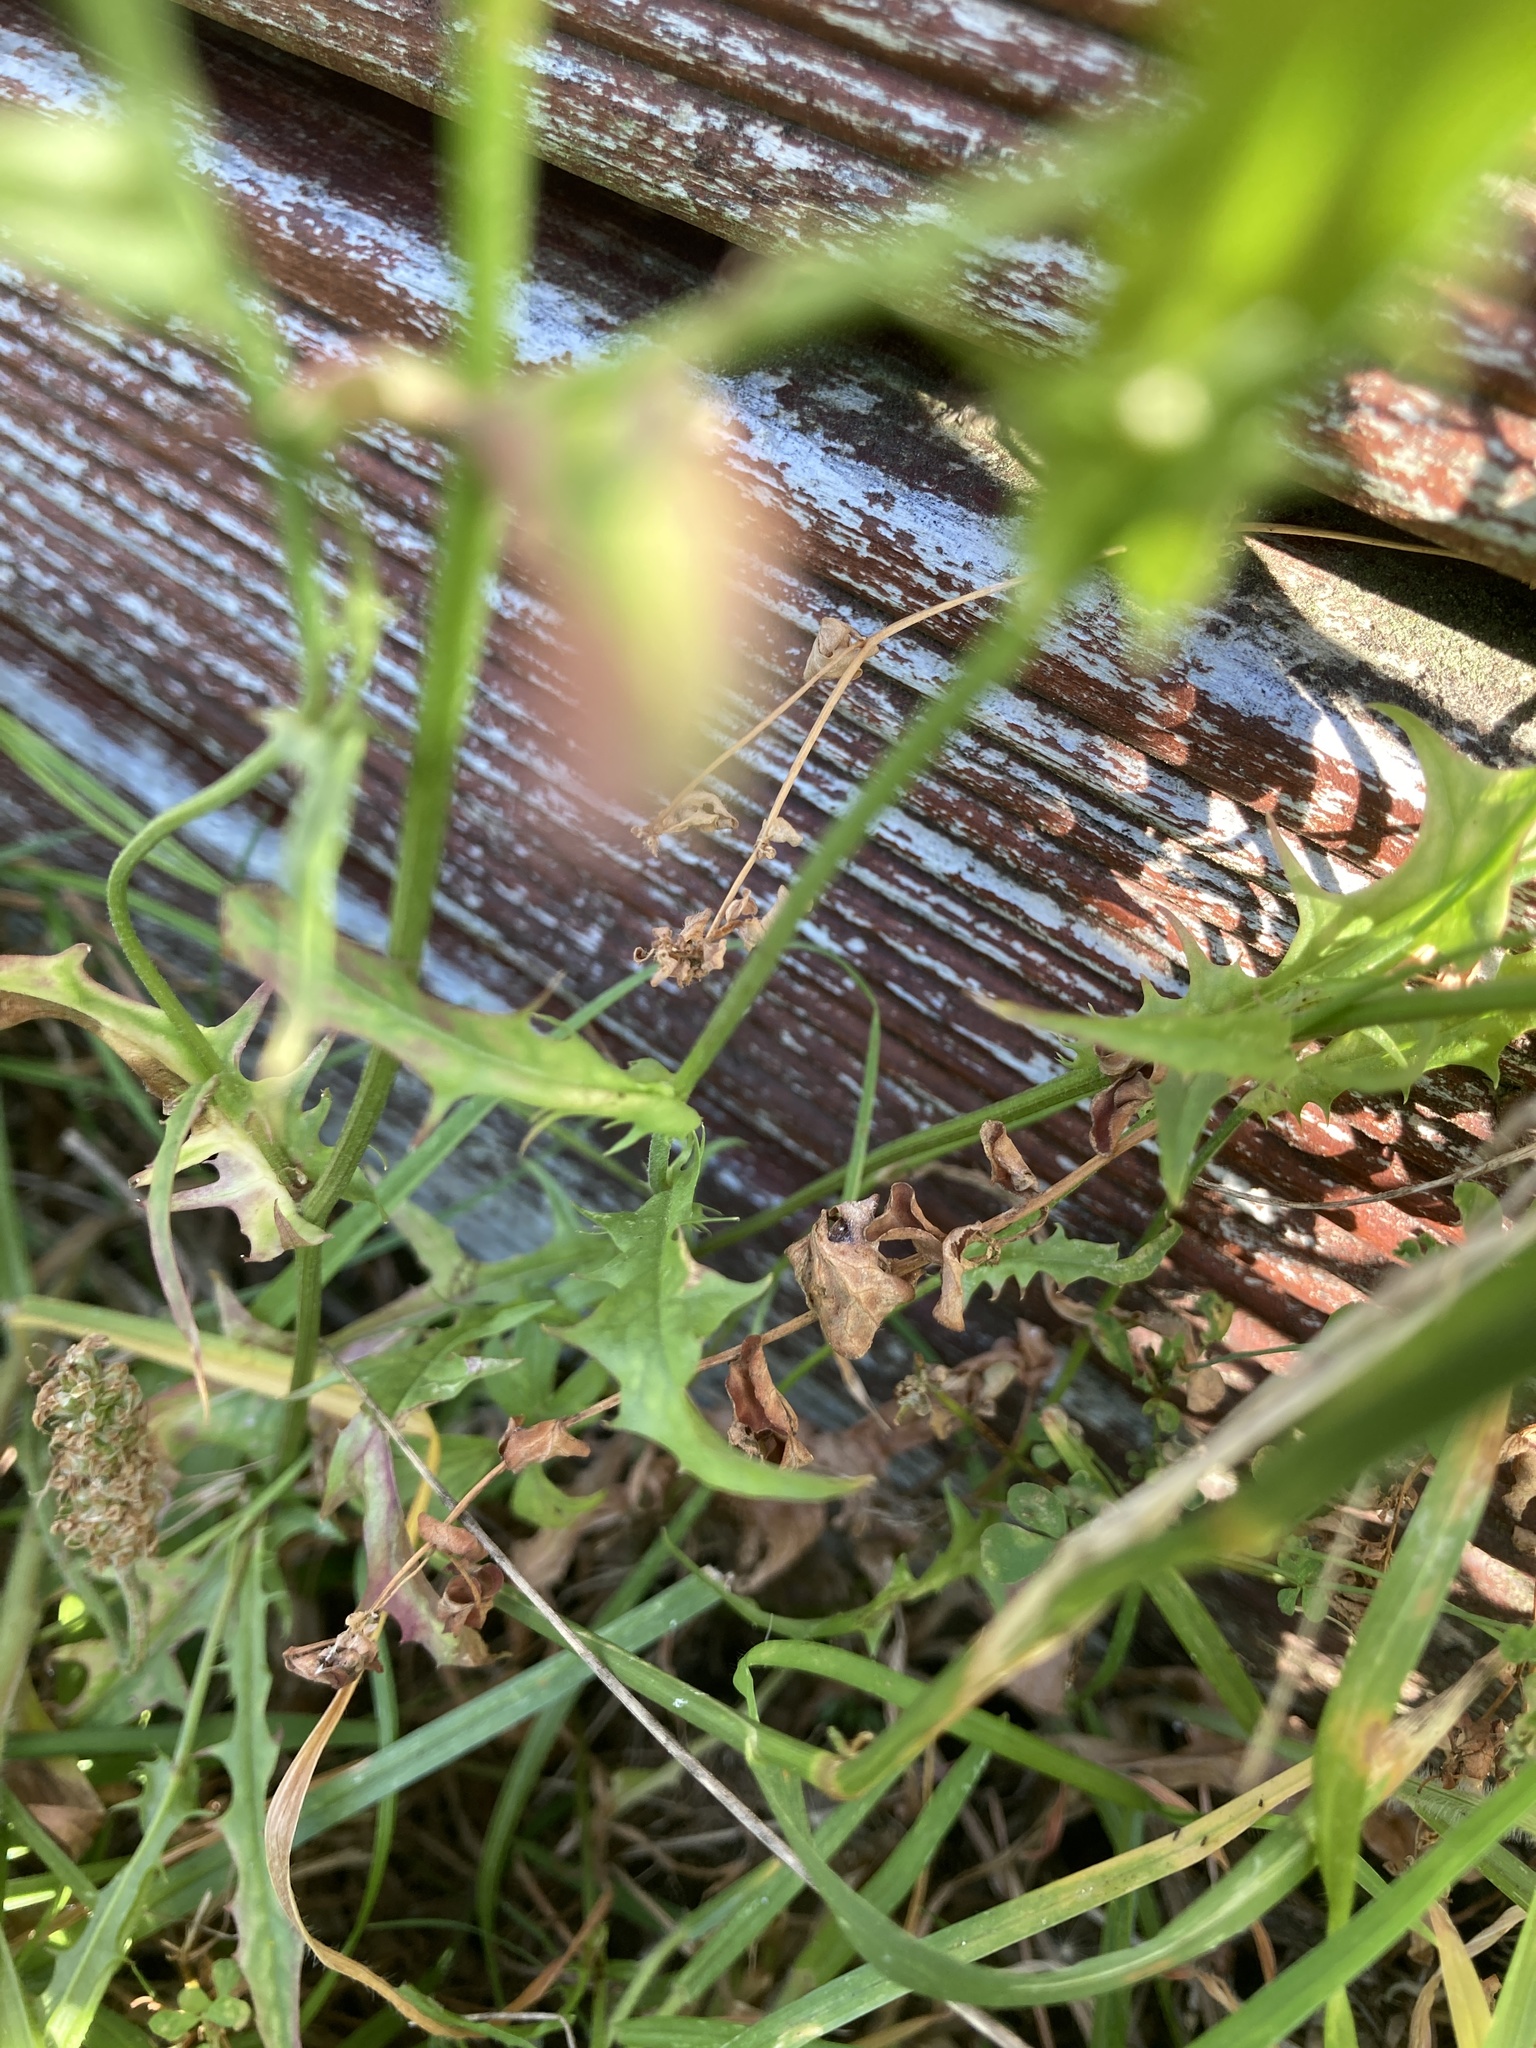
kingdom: Plantae
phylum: Tracheophyta
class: Magnoliopsida
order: Asterales
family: Asteraceae
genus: Crepis
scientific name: Crepis capillaris
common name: Smooth hawksbeard
